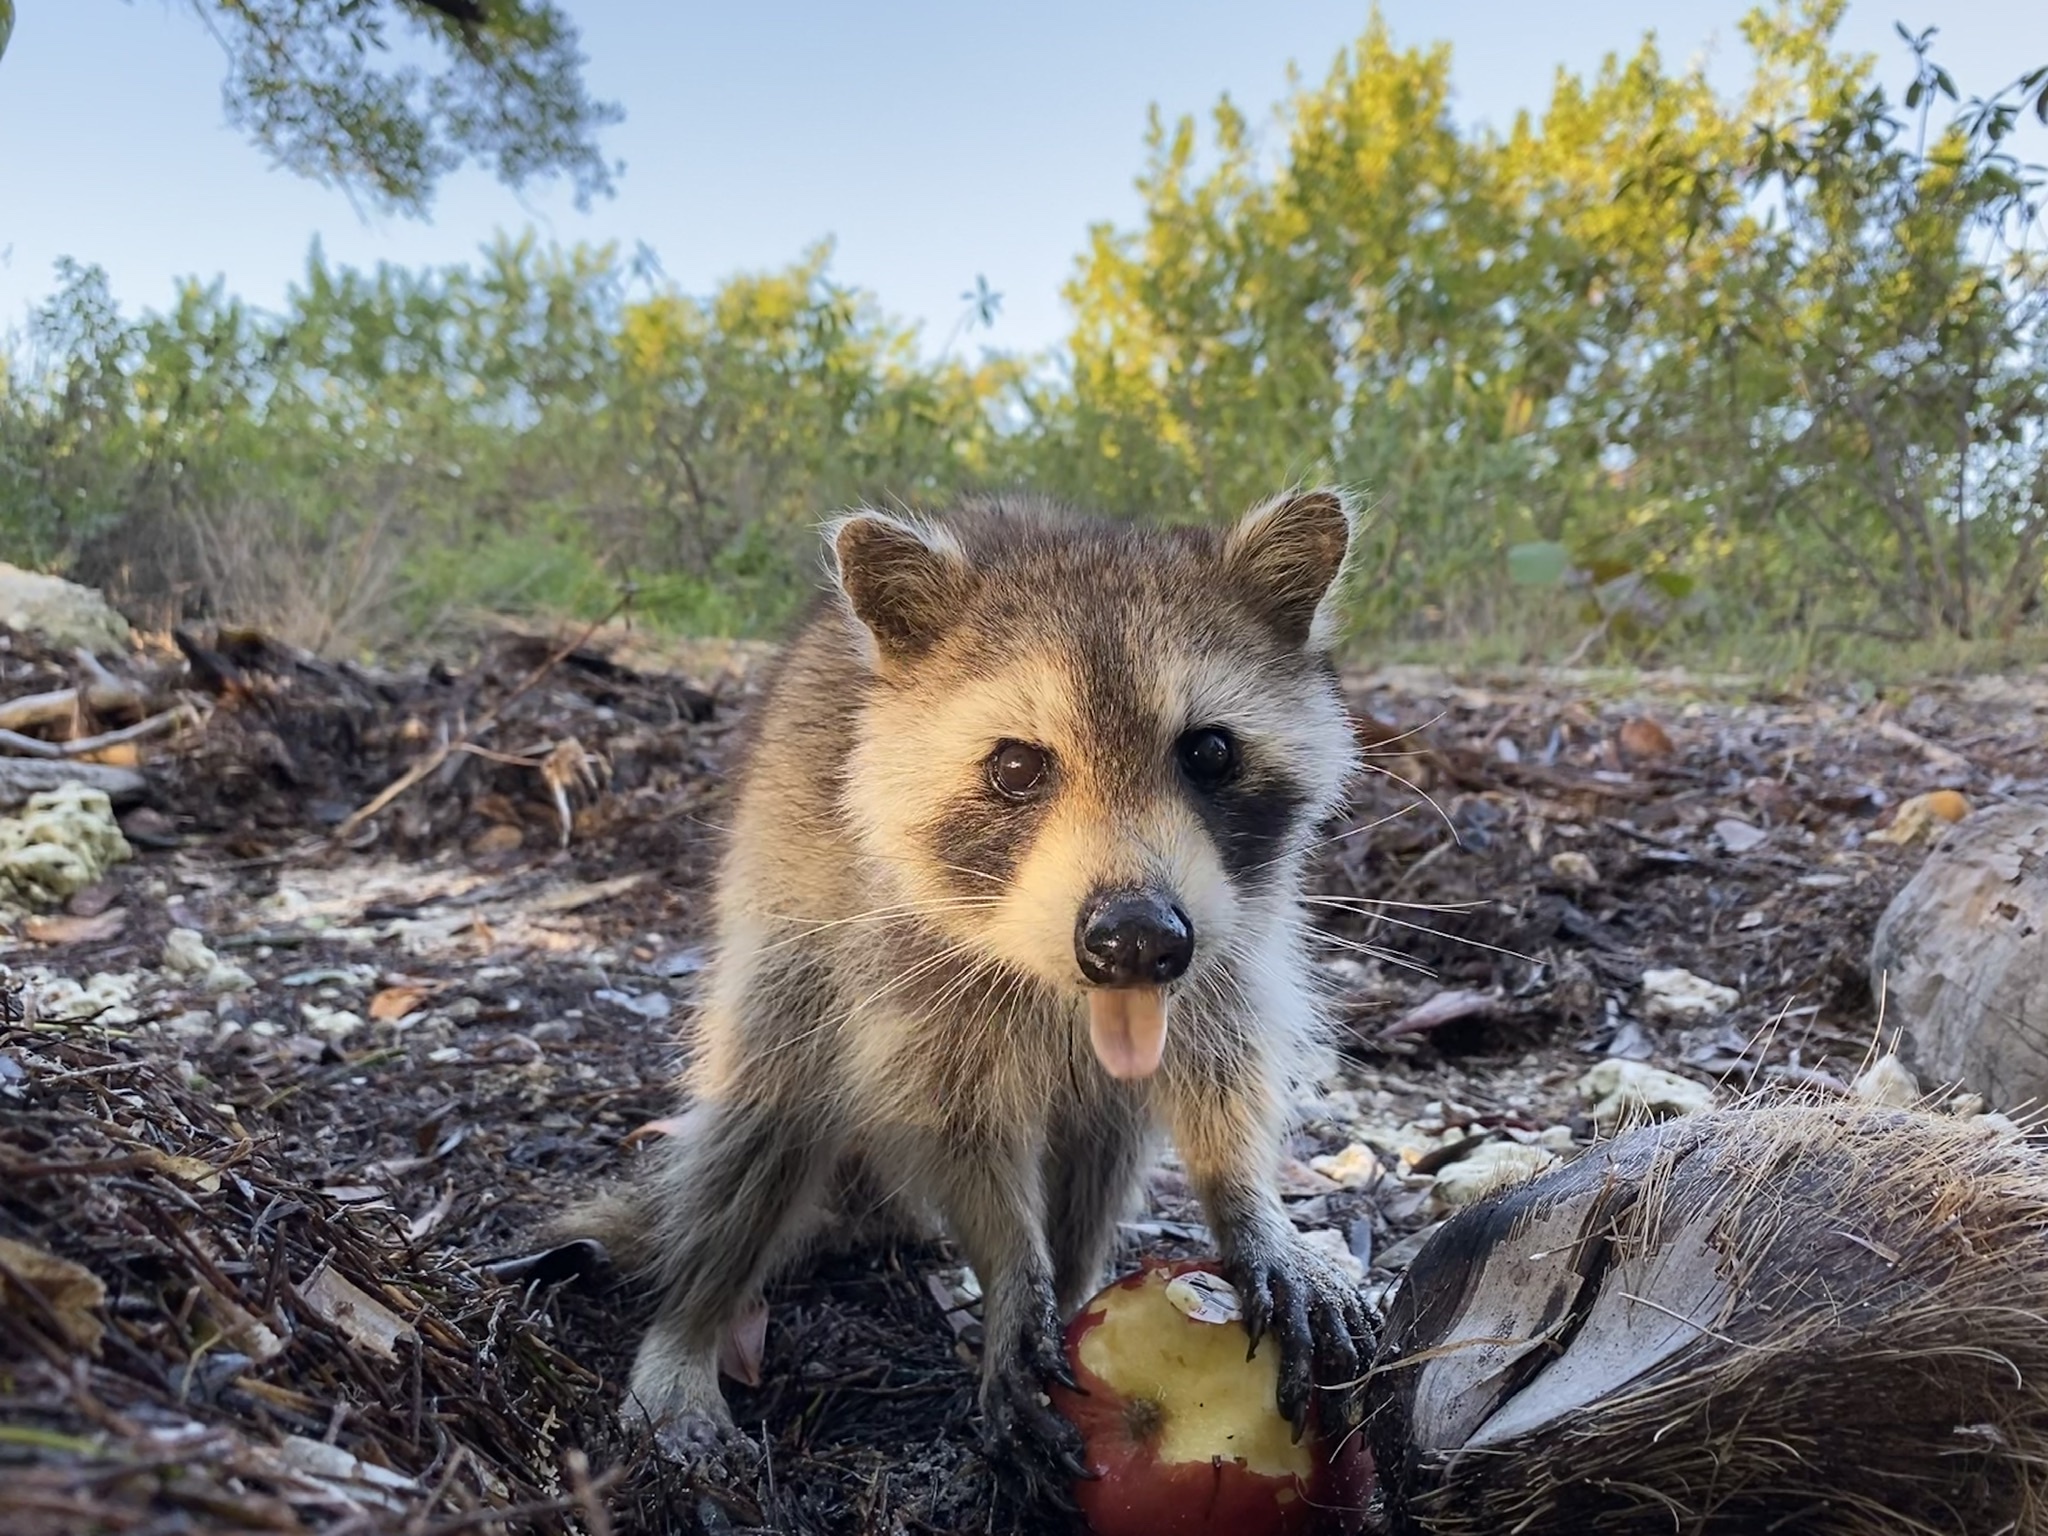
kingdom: Animalia
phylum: Chordata
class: Mammalia
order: Carnivora
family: Procyonidae
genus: Procyon
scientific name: Procyon lotor
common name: Raccoon
